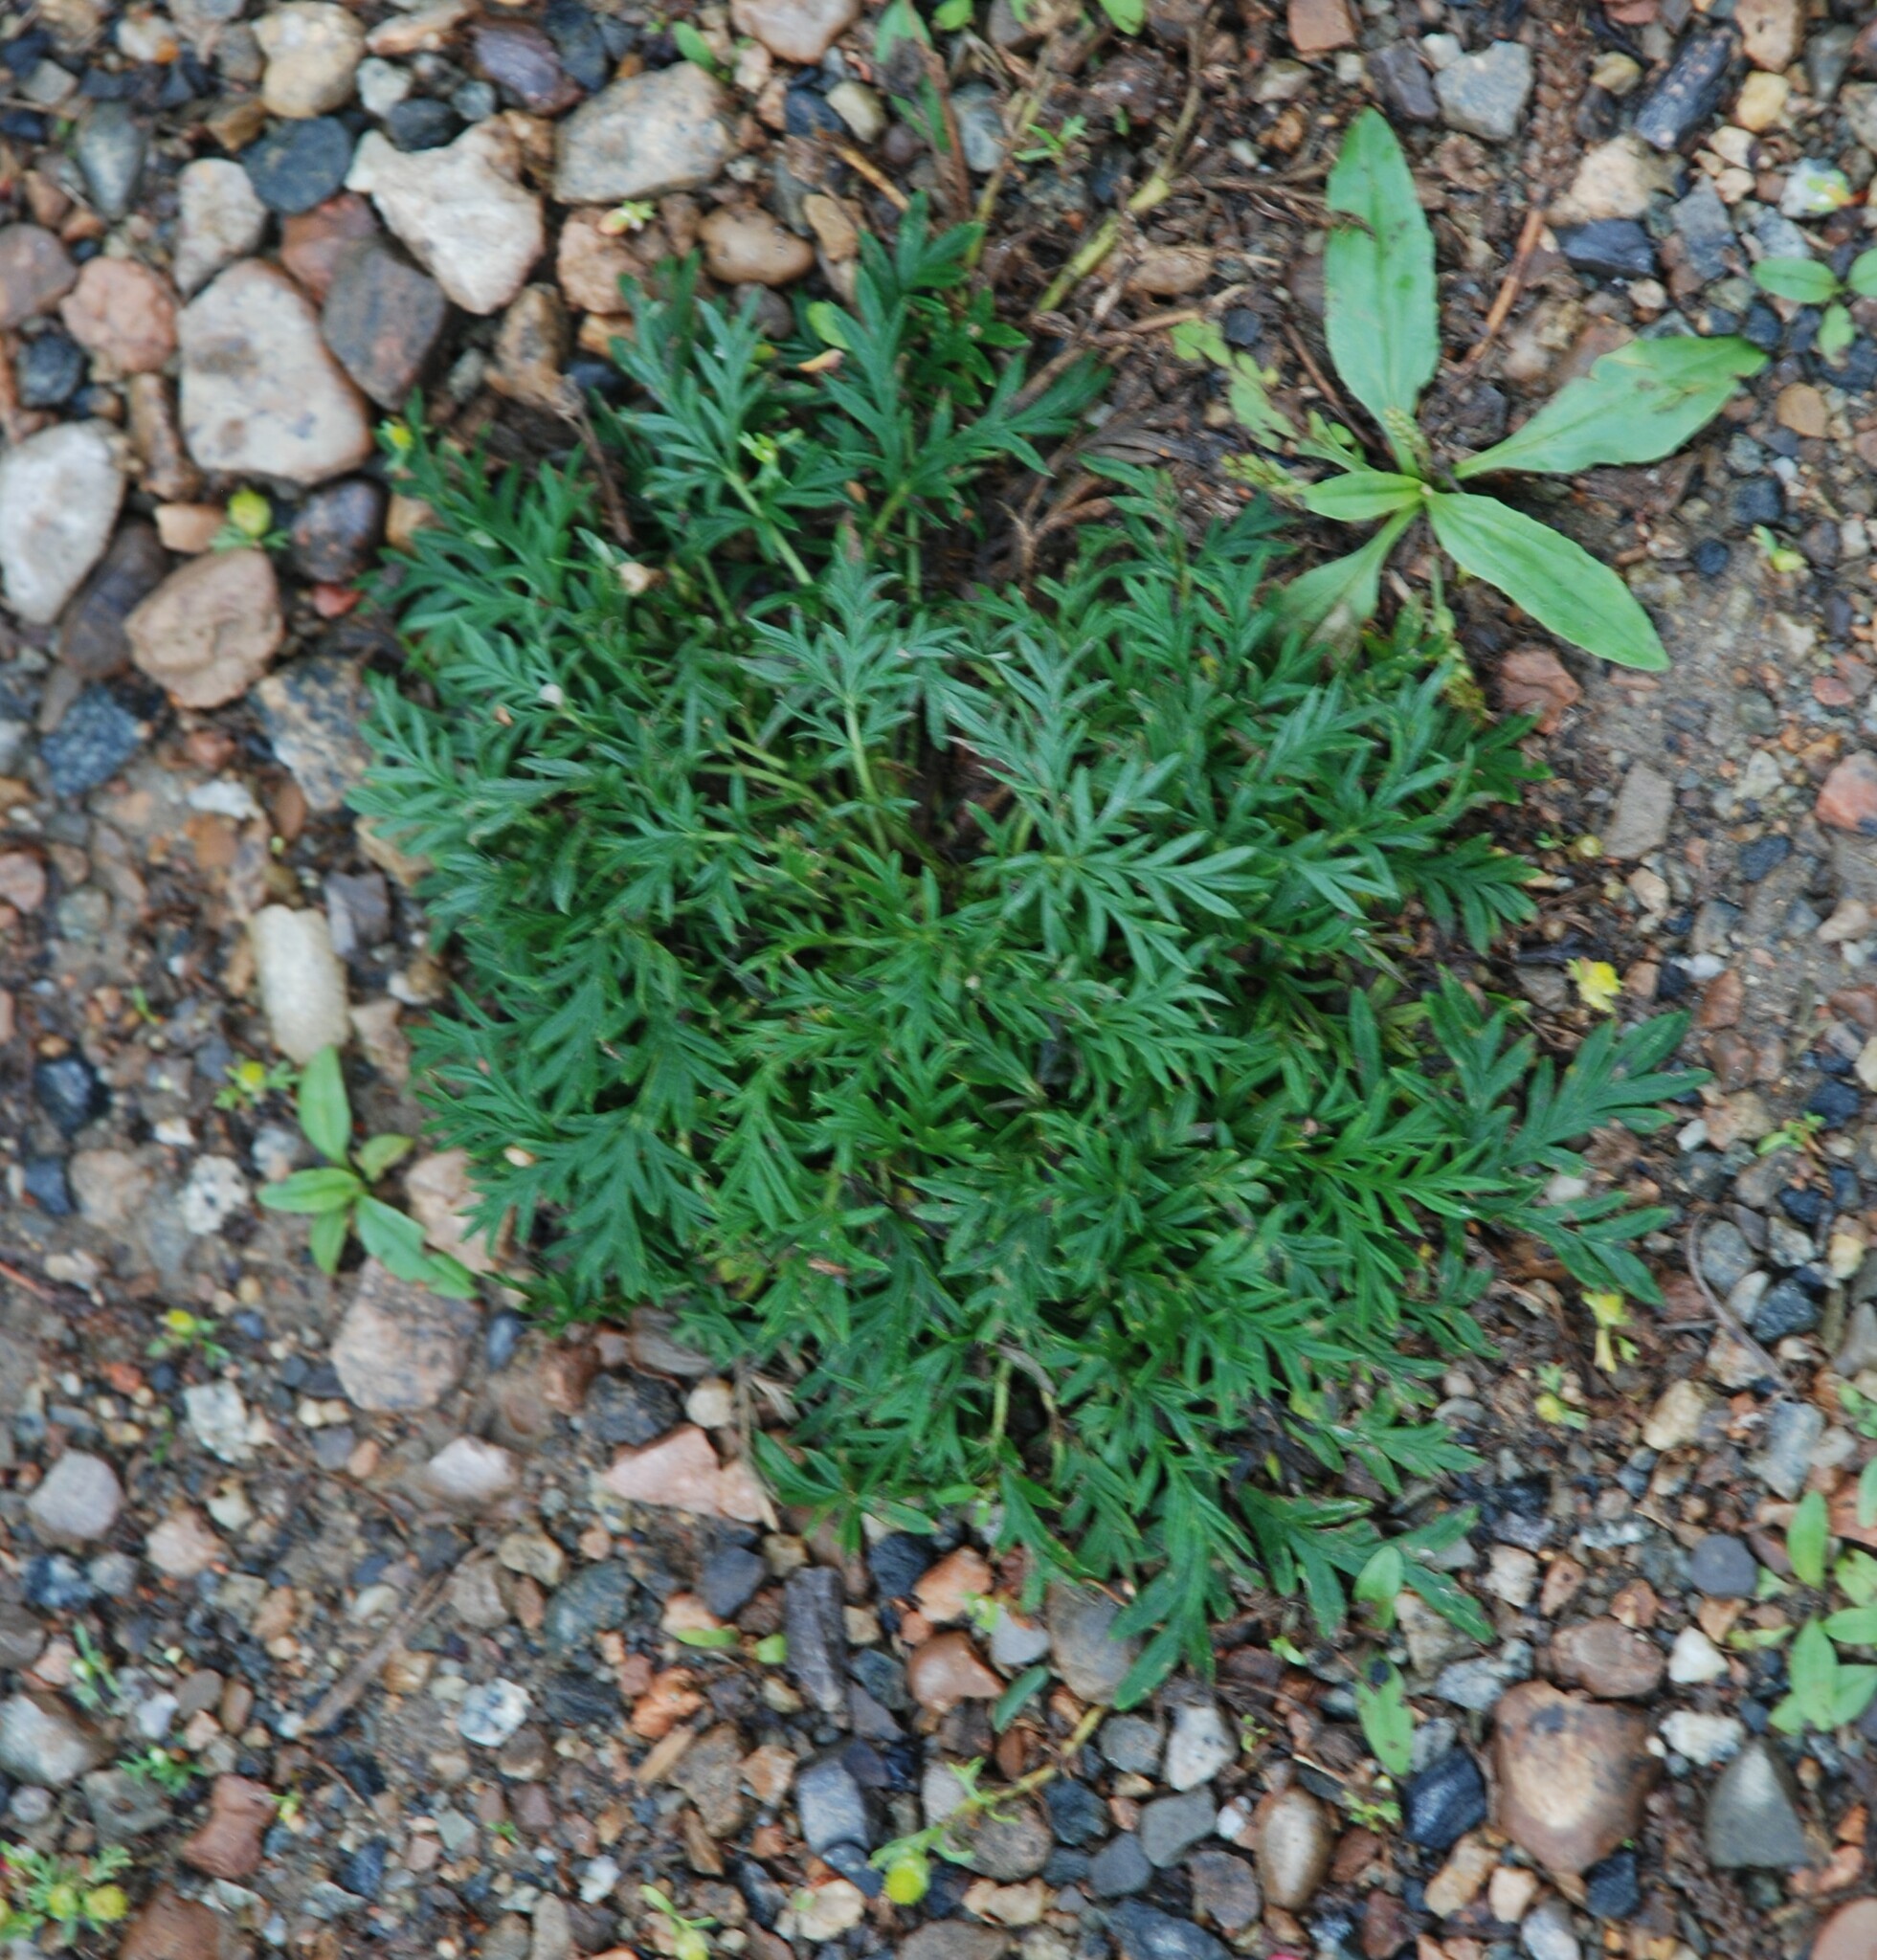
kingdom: Plantae
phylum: Tracheophyta
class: Magnoliopsida
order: Rosales
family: Rosaceae
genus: Potentilla
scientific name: Potentilla tergemina
